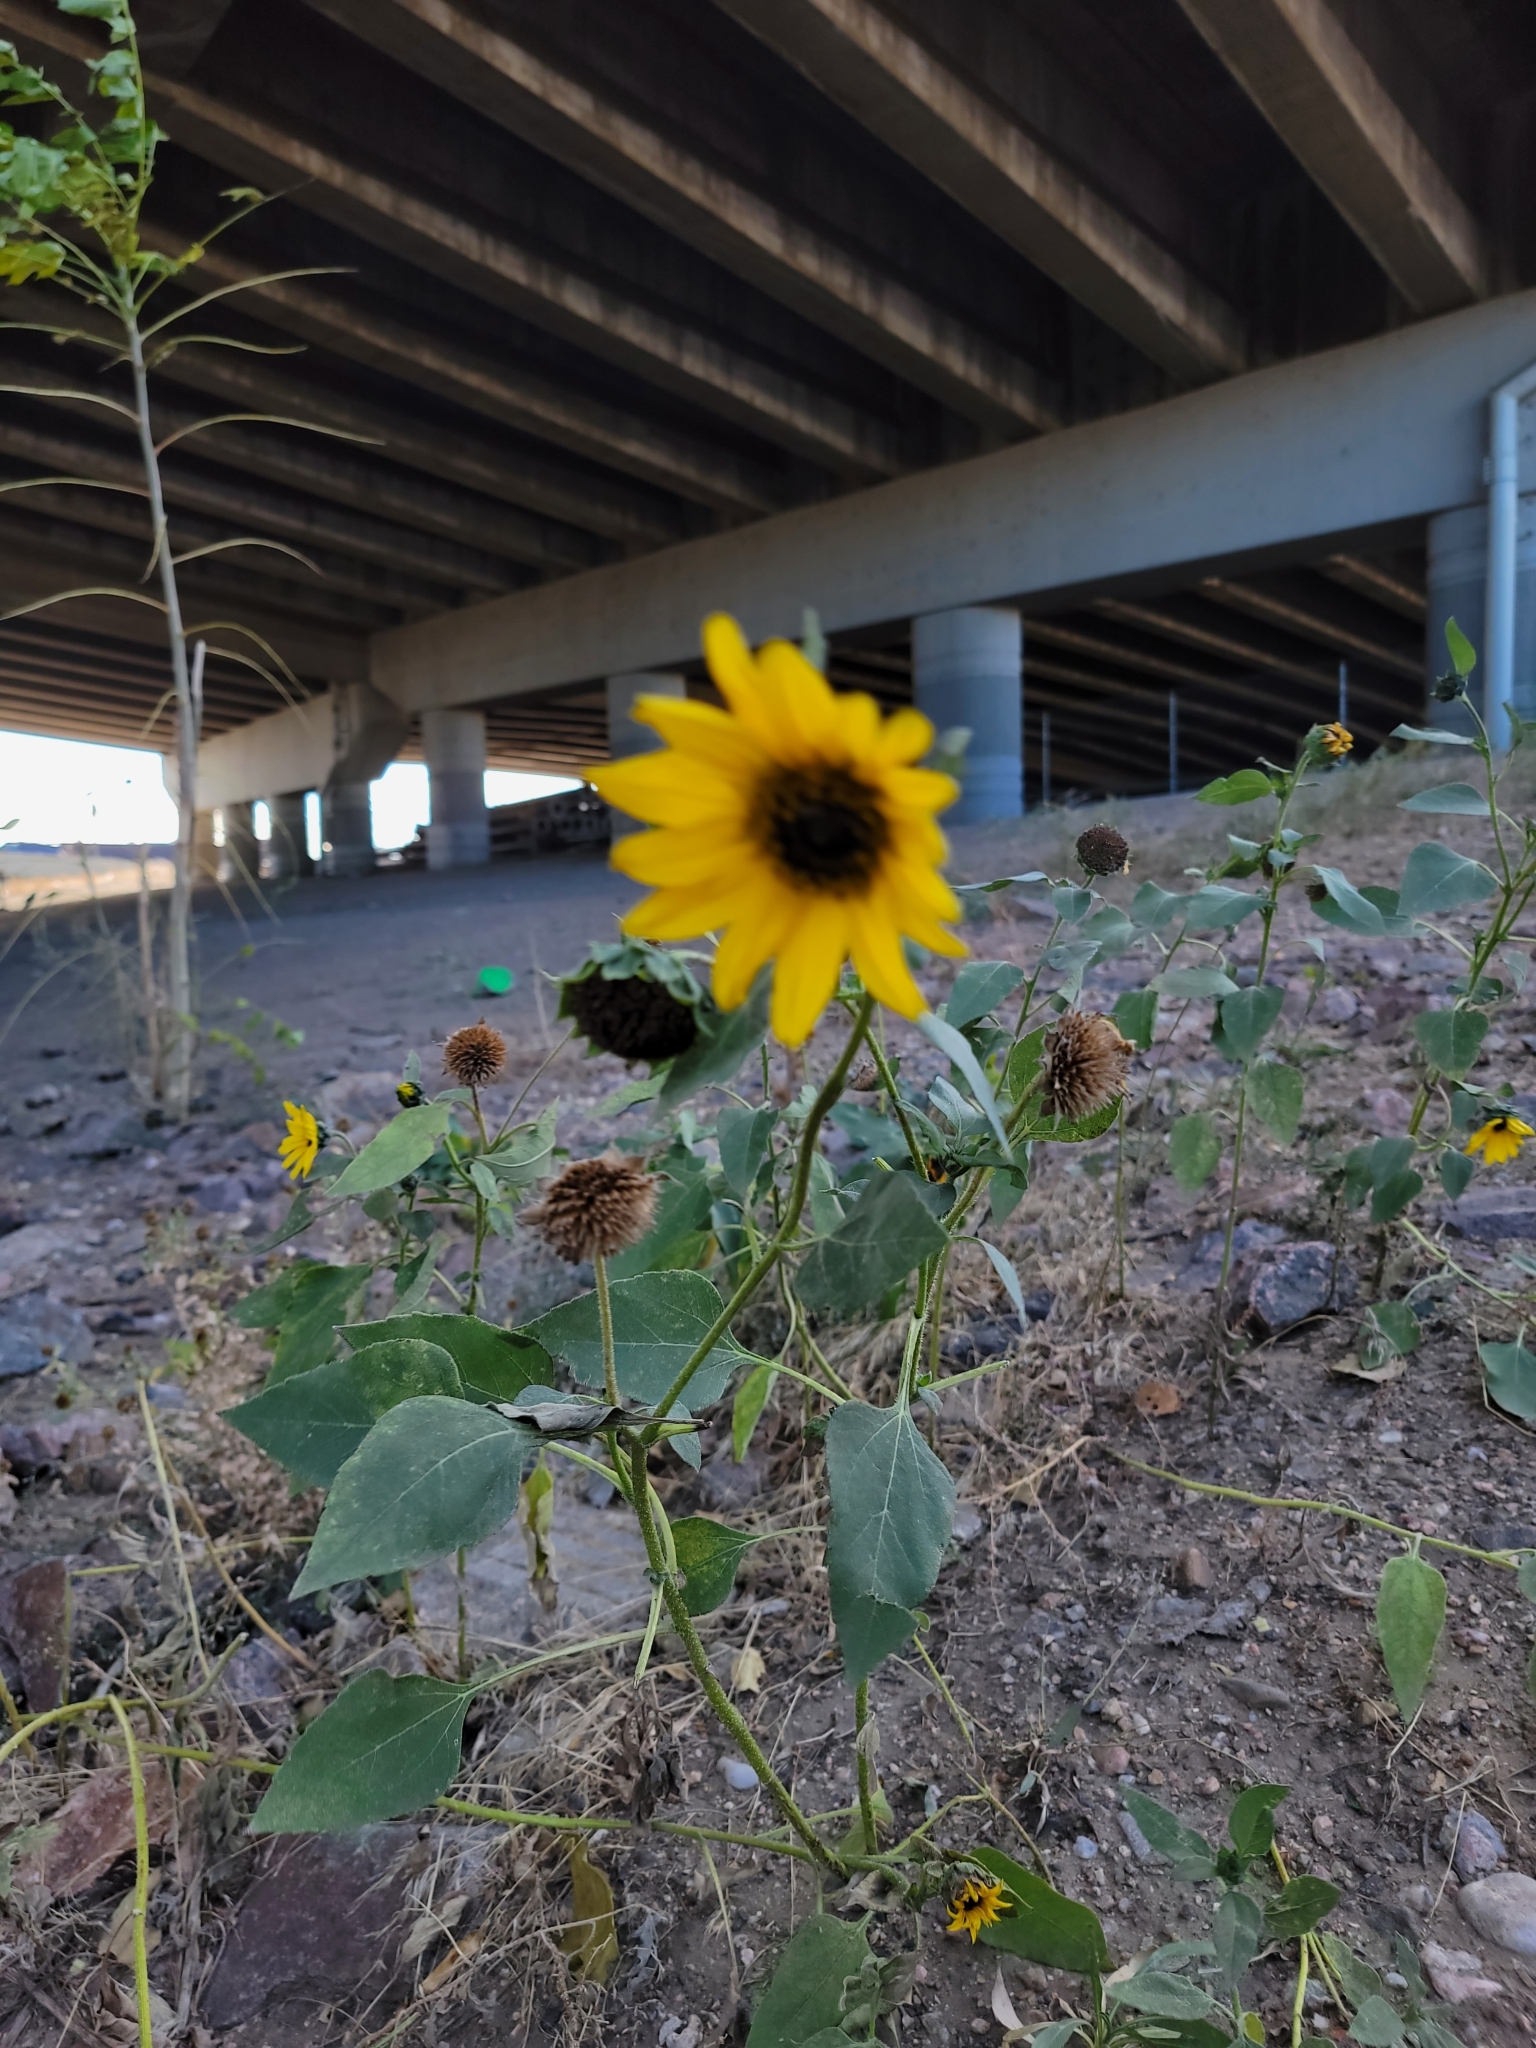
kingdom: Plantae
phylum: Tracheophyta
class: Magnoliopsida
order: Asterales
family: Asteraceae
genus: Helianthus
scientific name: Helianthus annuus
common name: Sunflower
